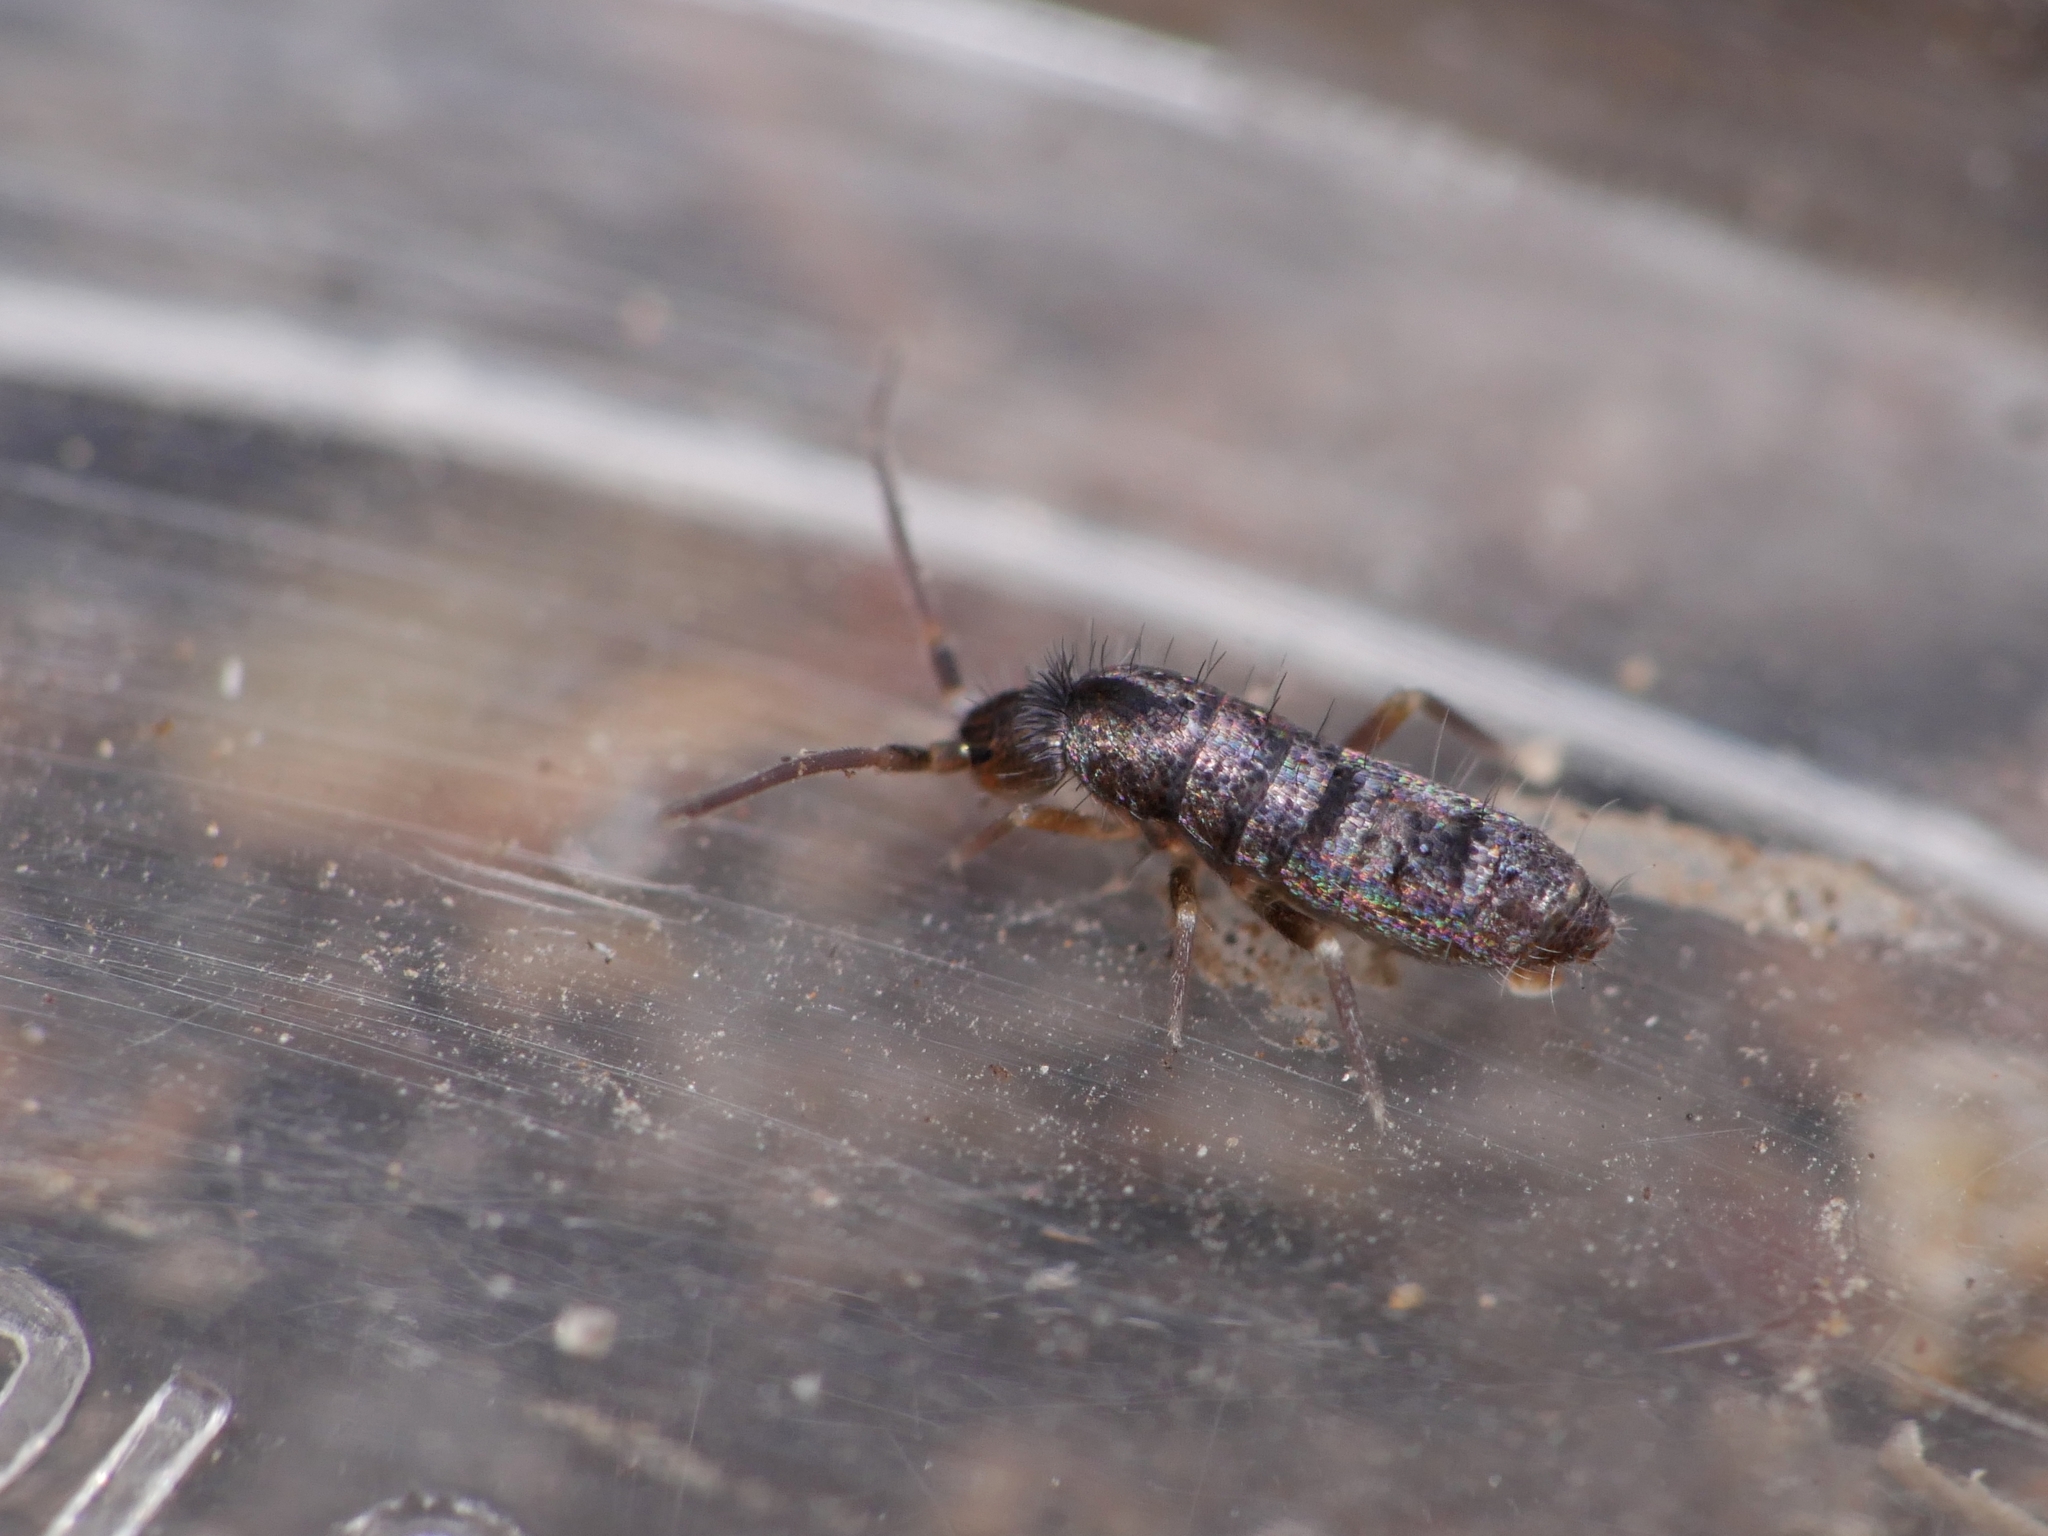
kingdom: Animalia
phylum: Arthropoda
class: Collembola
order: Entomobryomorpha
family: Tomoceridae
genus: Tomocerus
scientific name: Tomocerus vulgaris
